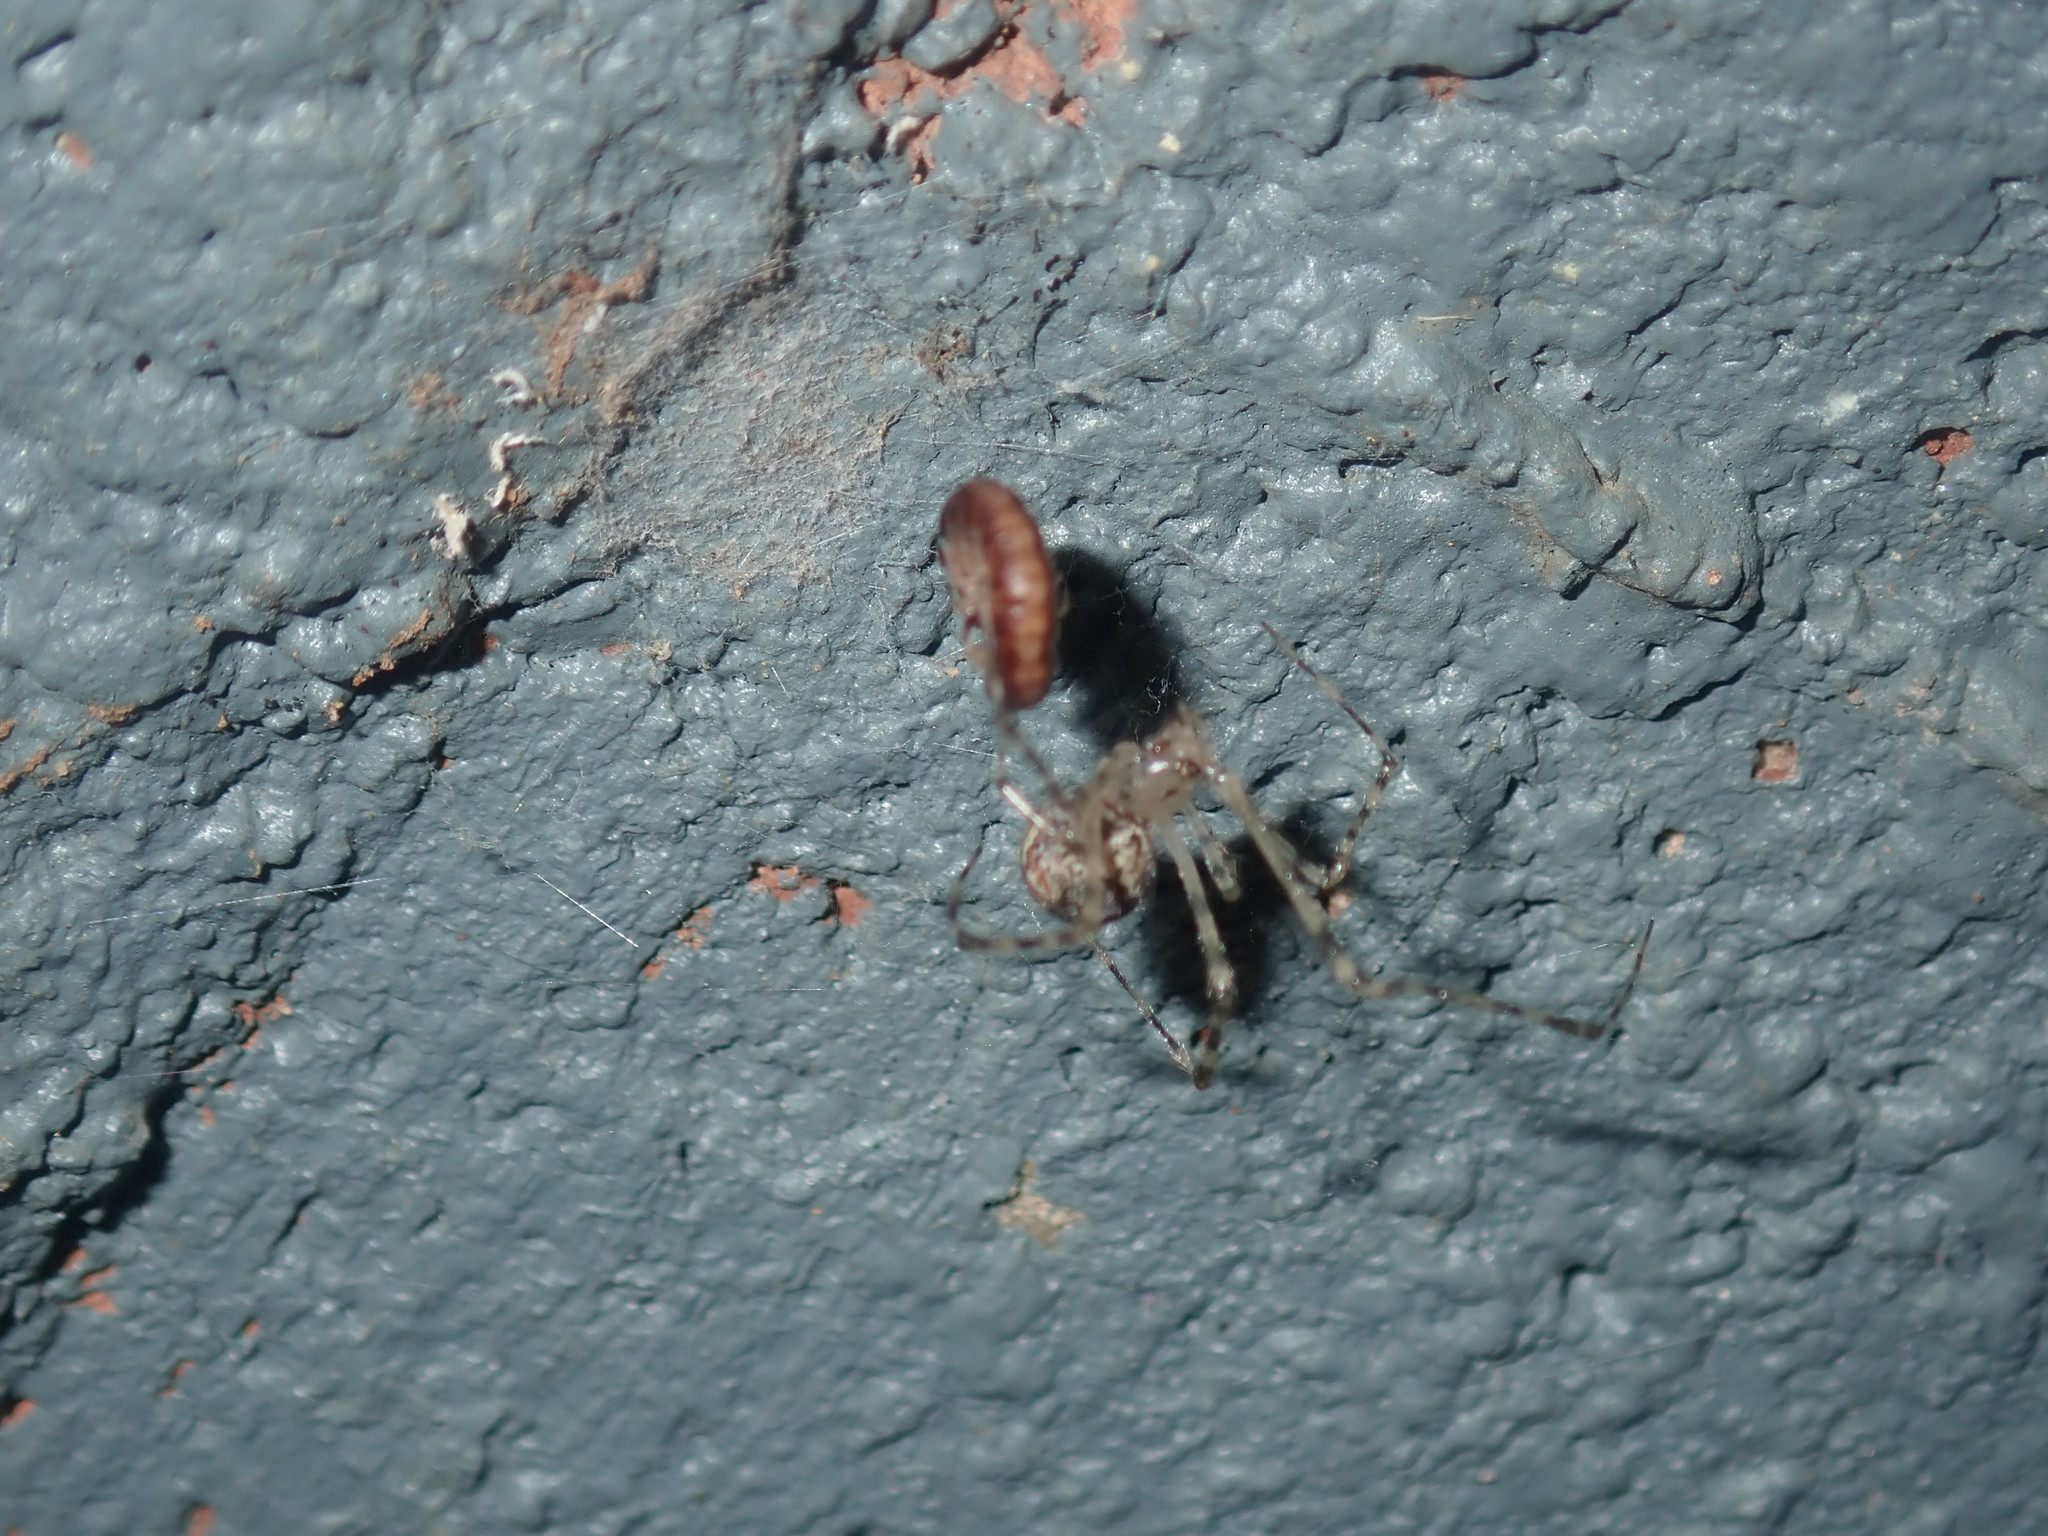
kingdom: Animalia
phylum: Arthropoda
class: Arachnida
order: Araneae
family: Theridiidae
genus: Cryptachaea
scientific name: Cryptachaea gigantipes
